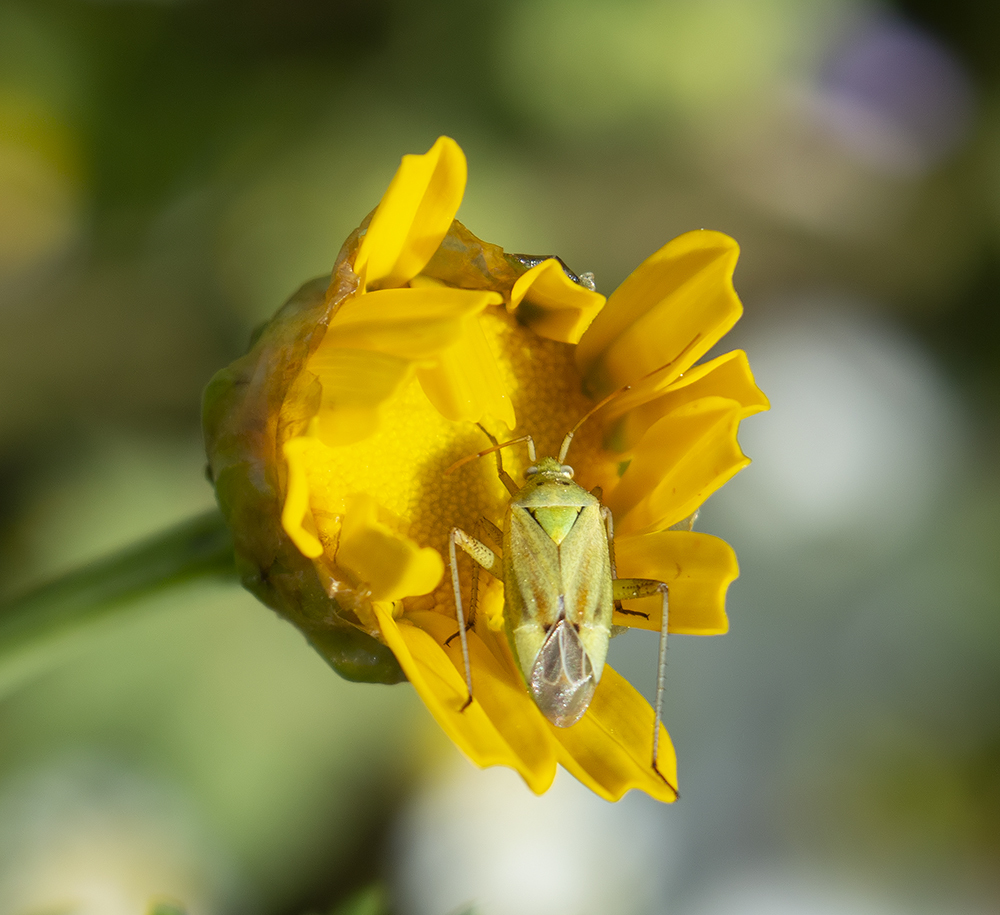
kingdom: Animalia
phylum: Arthropoda
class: Insecta
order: Hemiptera
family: Miridae
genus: Closterotomus
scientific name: Closterotomus norvegicus
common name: Plant bug
